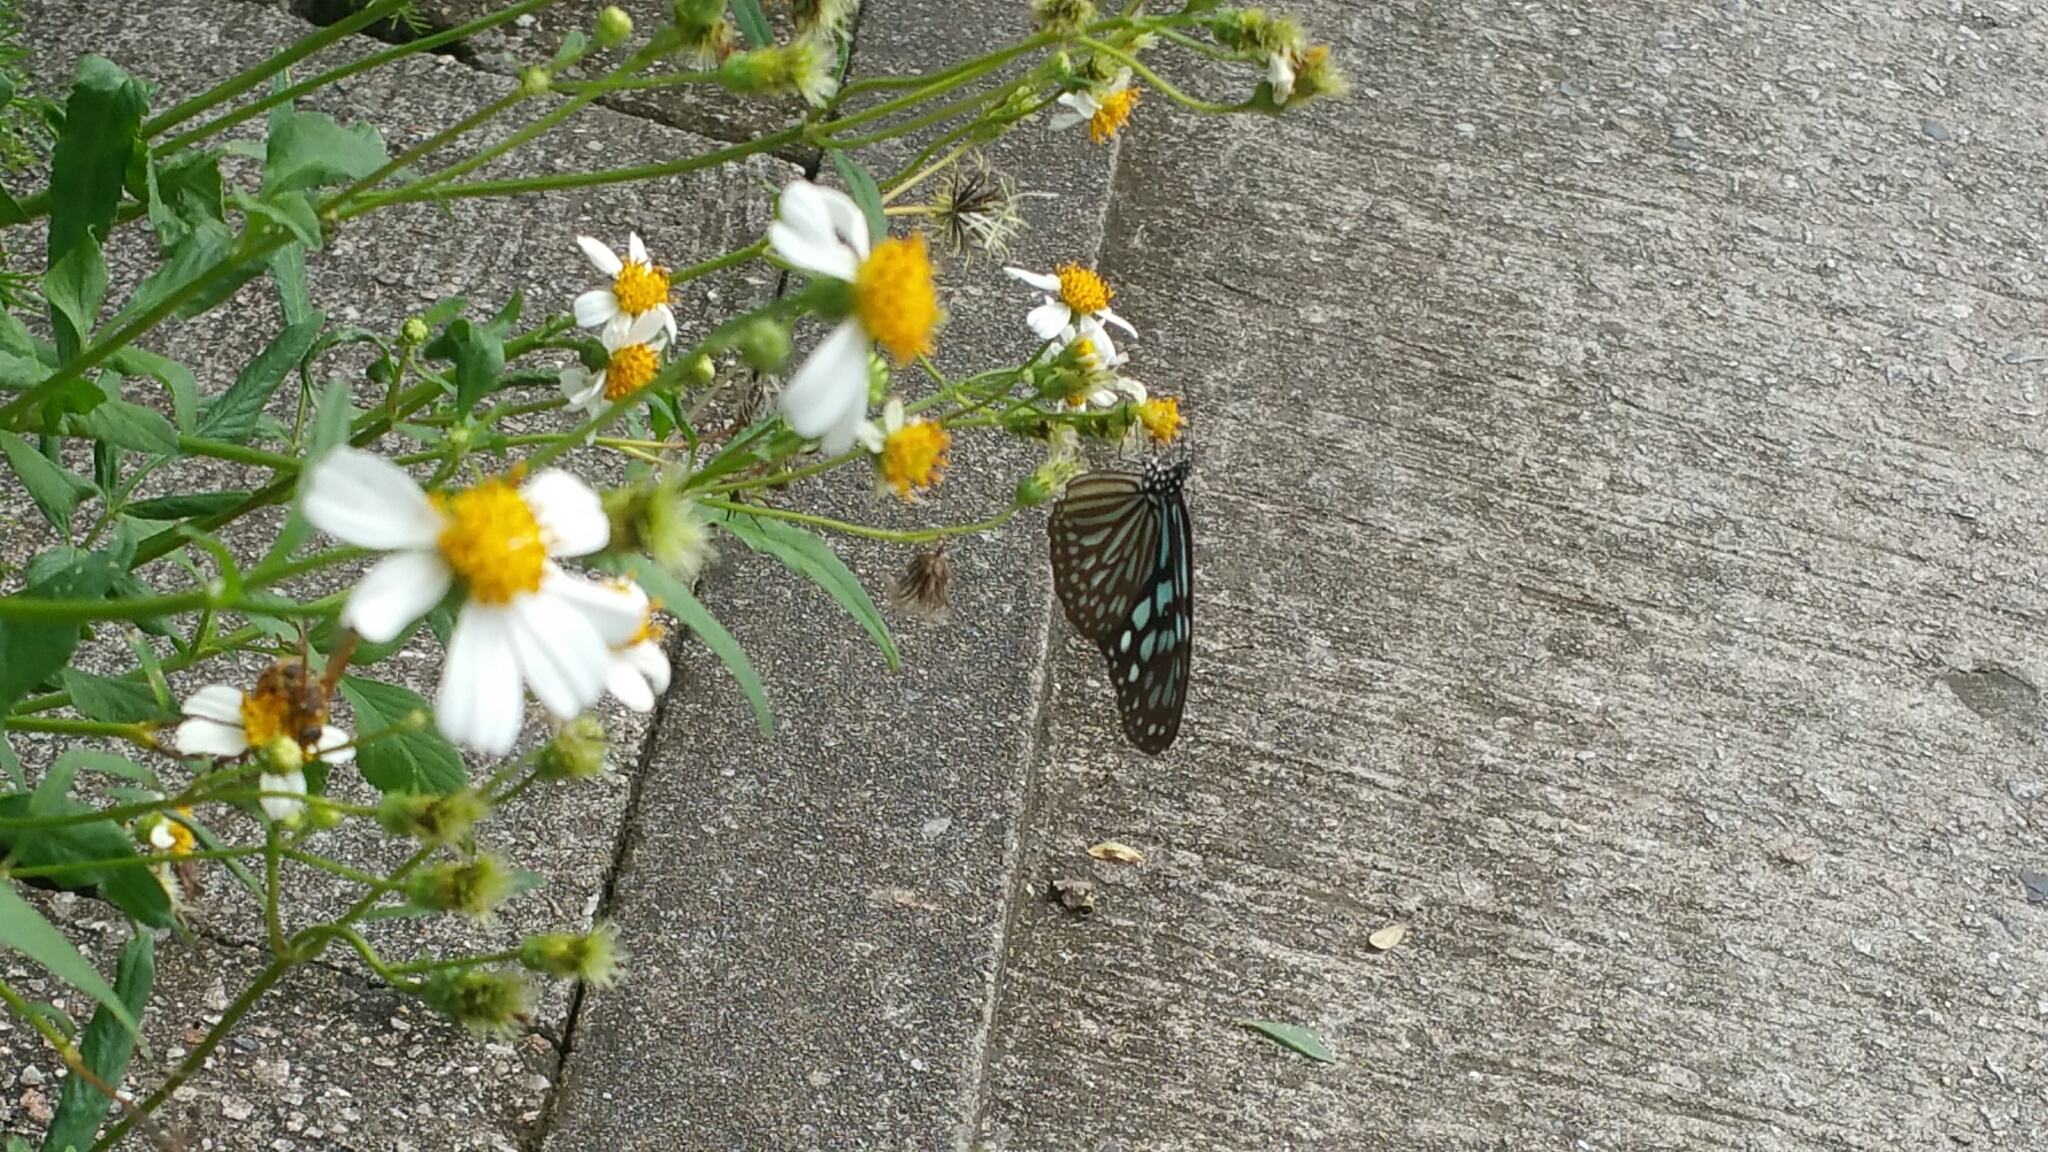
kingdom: Animalia
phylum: Arthropoda
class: Insecta
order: Lepidoptera
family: Nymphalidae
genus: Ideopsis
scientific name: Ideopsis similis
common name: Ceylon blue glassy tiger
